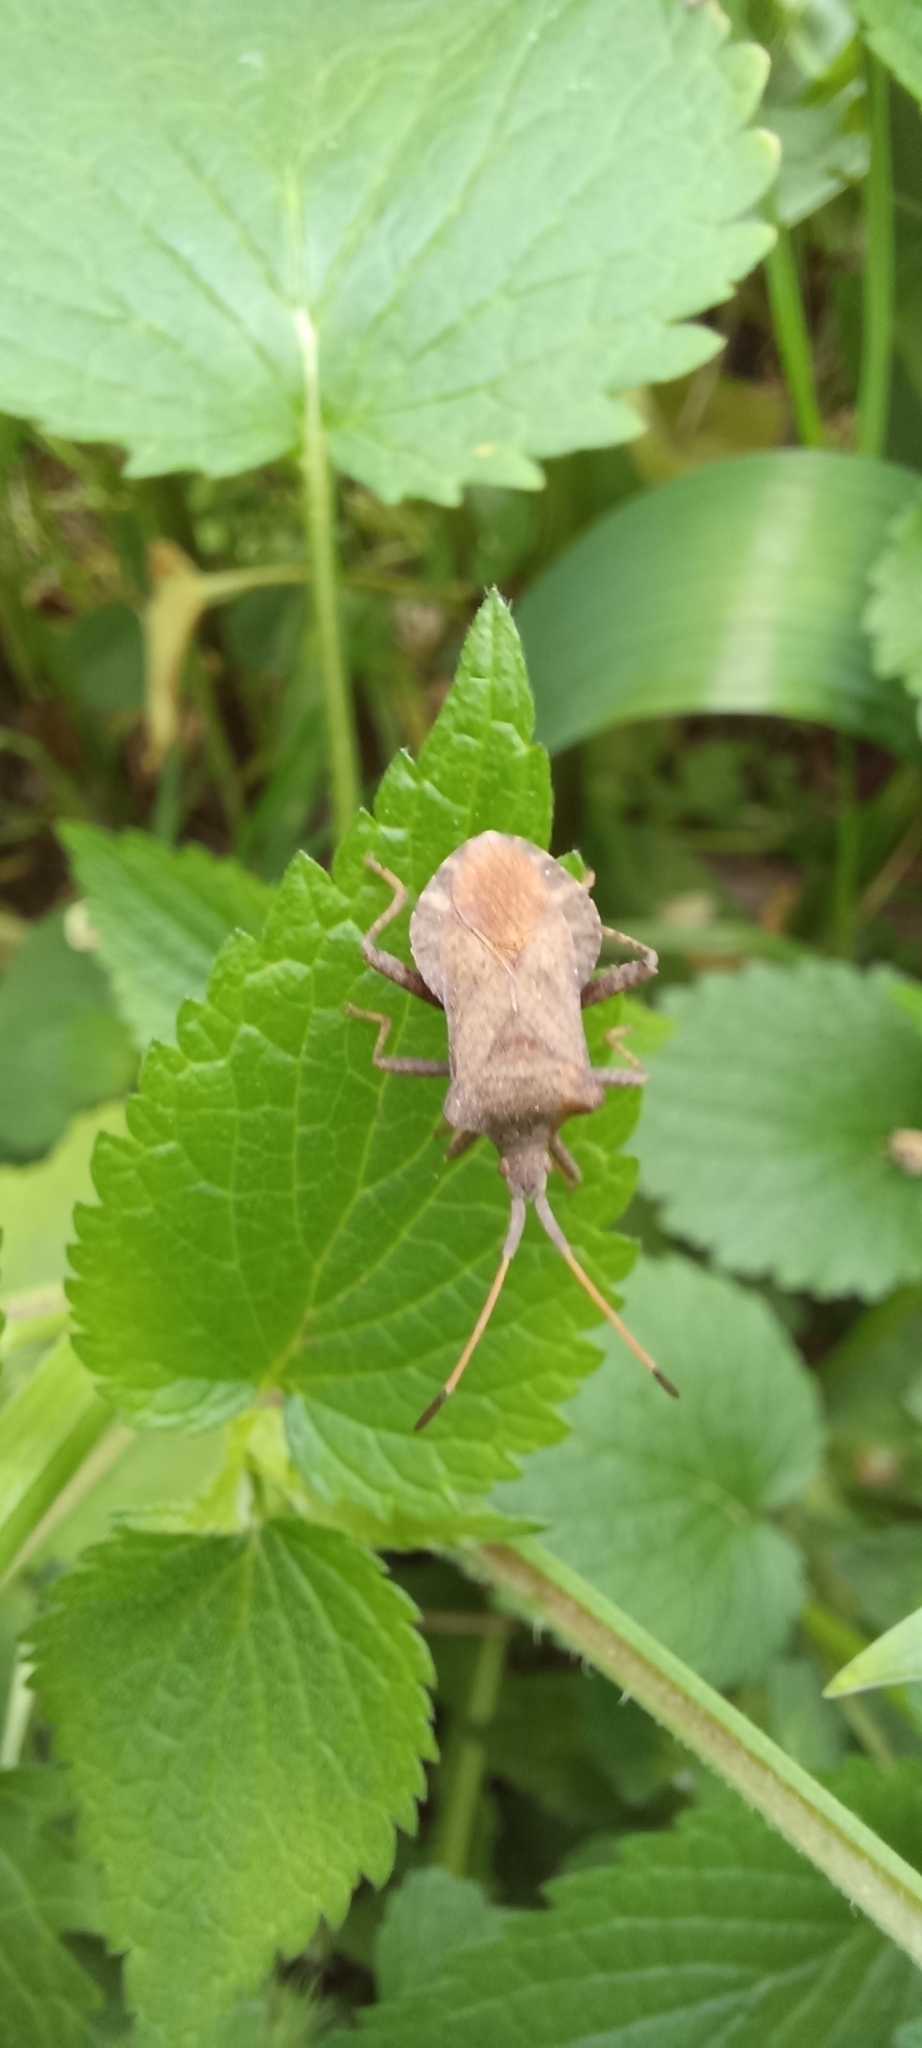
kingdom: Animalia
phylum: Arthropoda
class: Insecta
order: Hemiptera
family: Coreidae
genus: Coreus
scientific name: Coreus marginatus
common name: Dock bug
